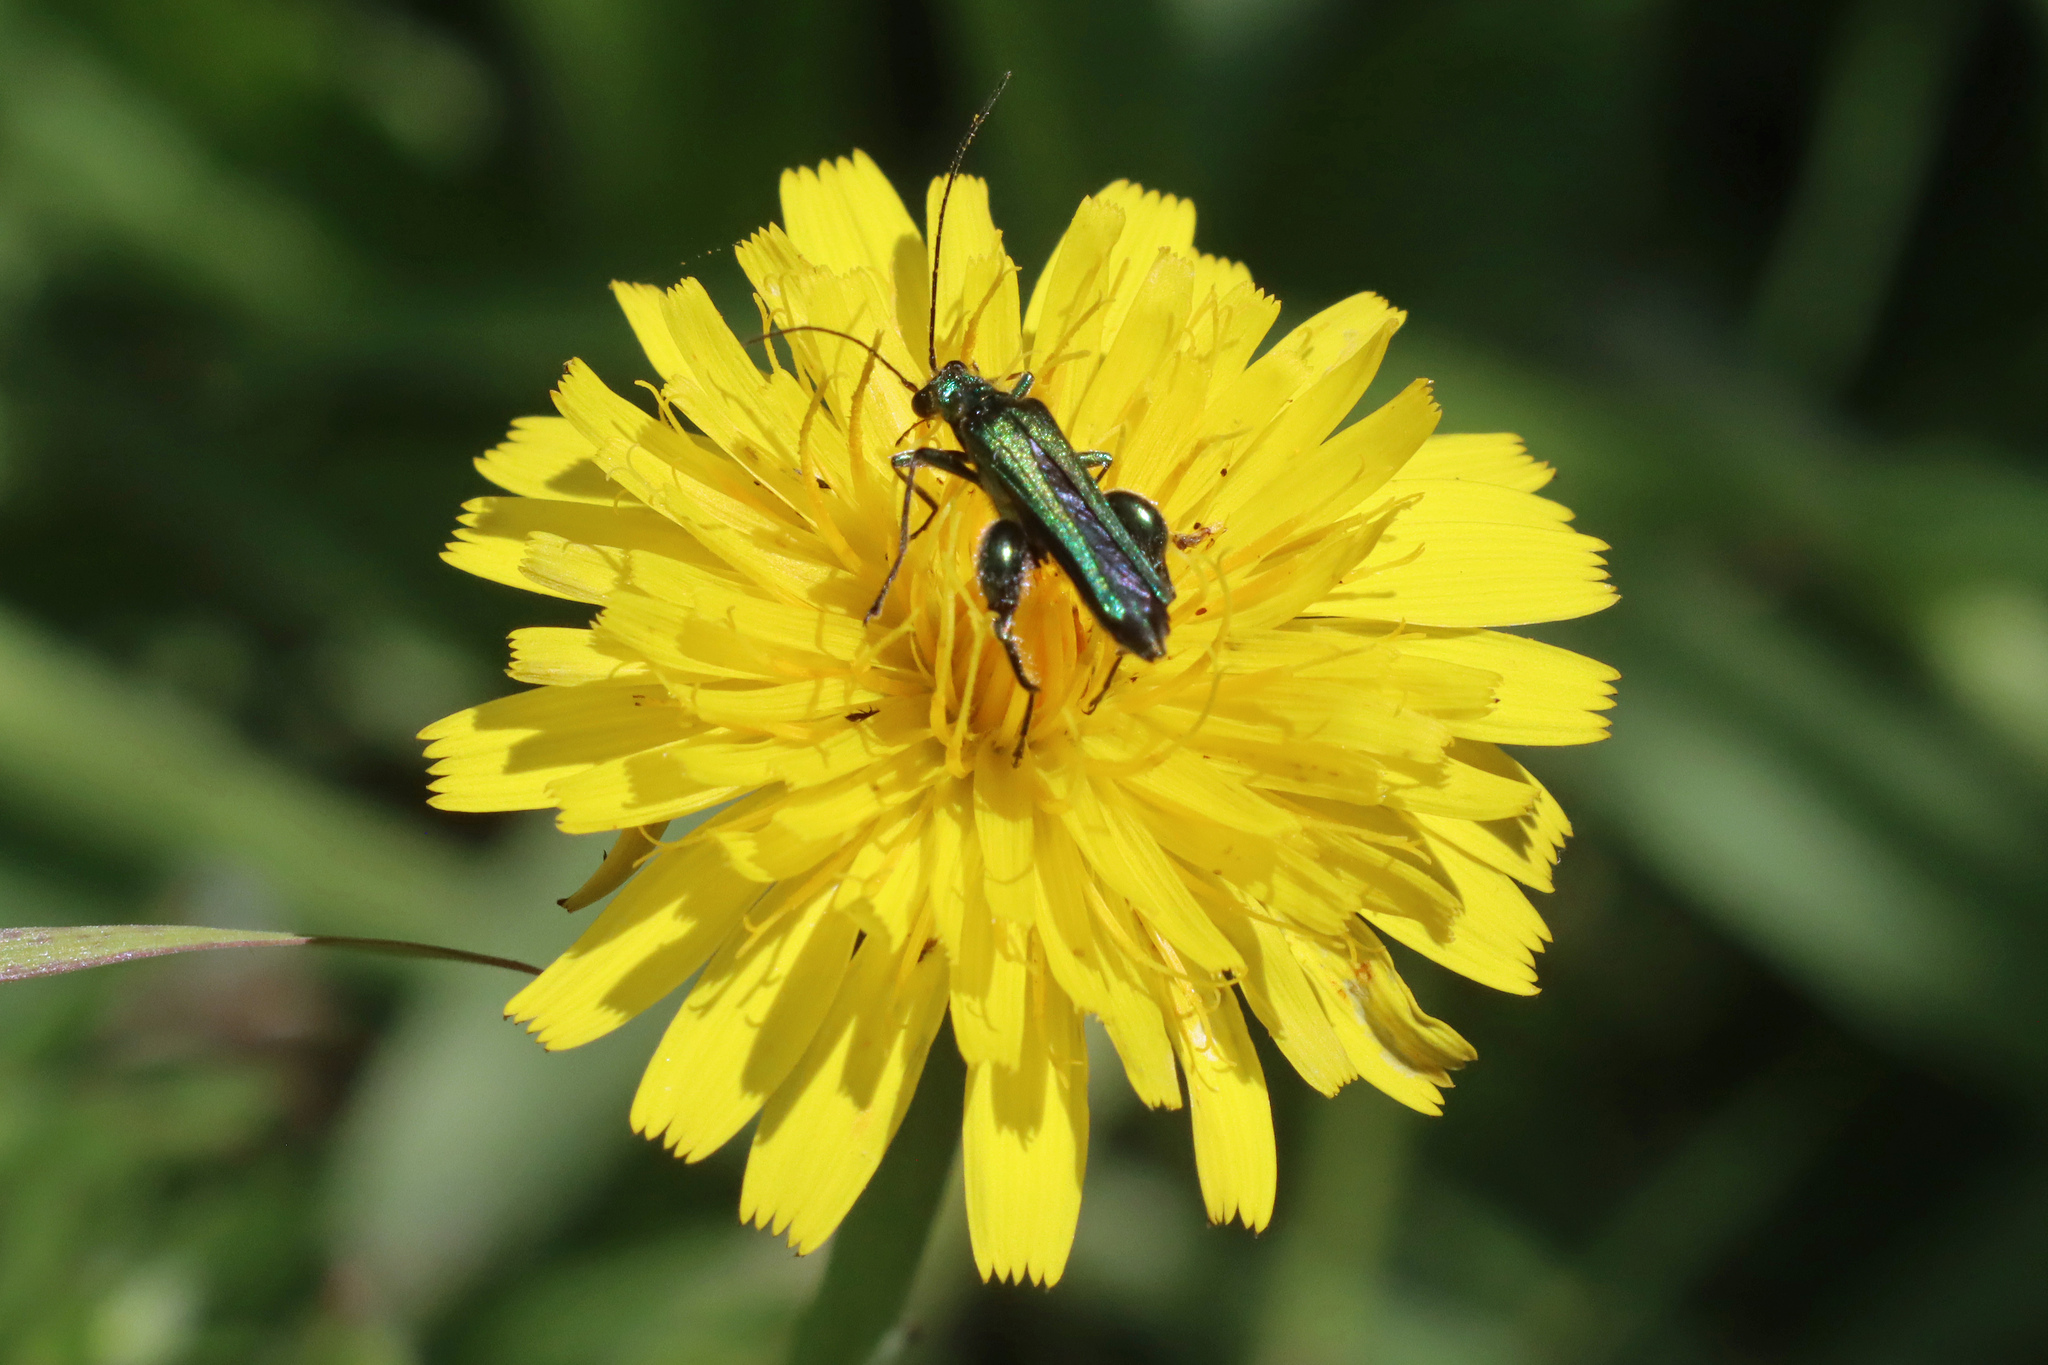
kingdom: Animalia
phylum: Arthropoda
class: Insecta
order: Coleoptera
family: Oedemeridae
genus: Oedemera
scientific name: Oedemera nobilis
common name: Swollen-thighed beetle
